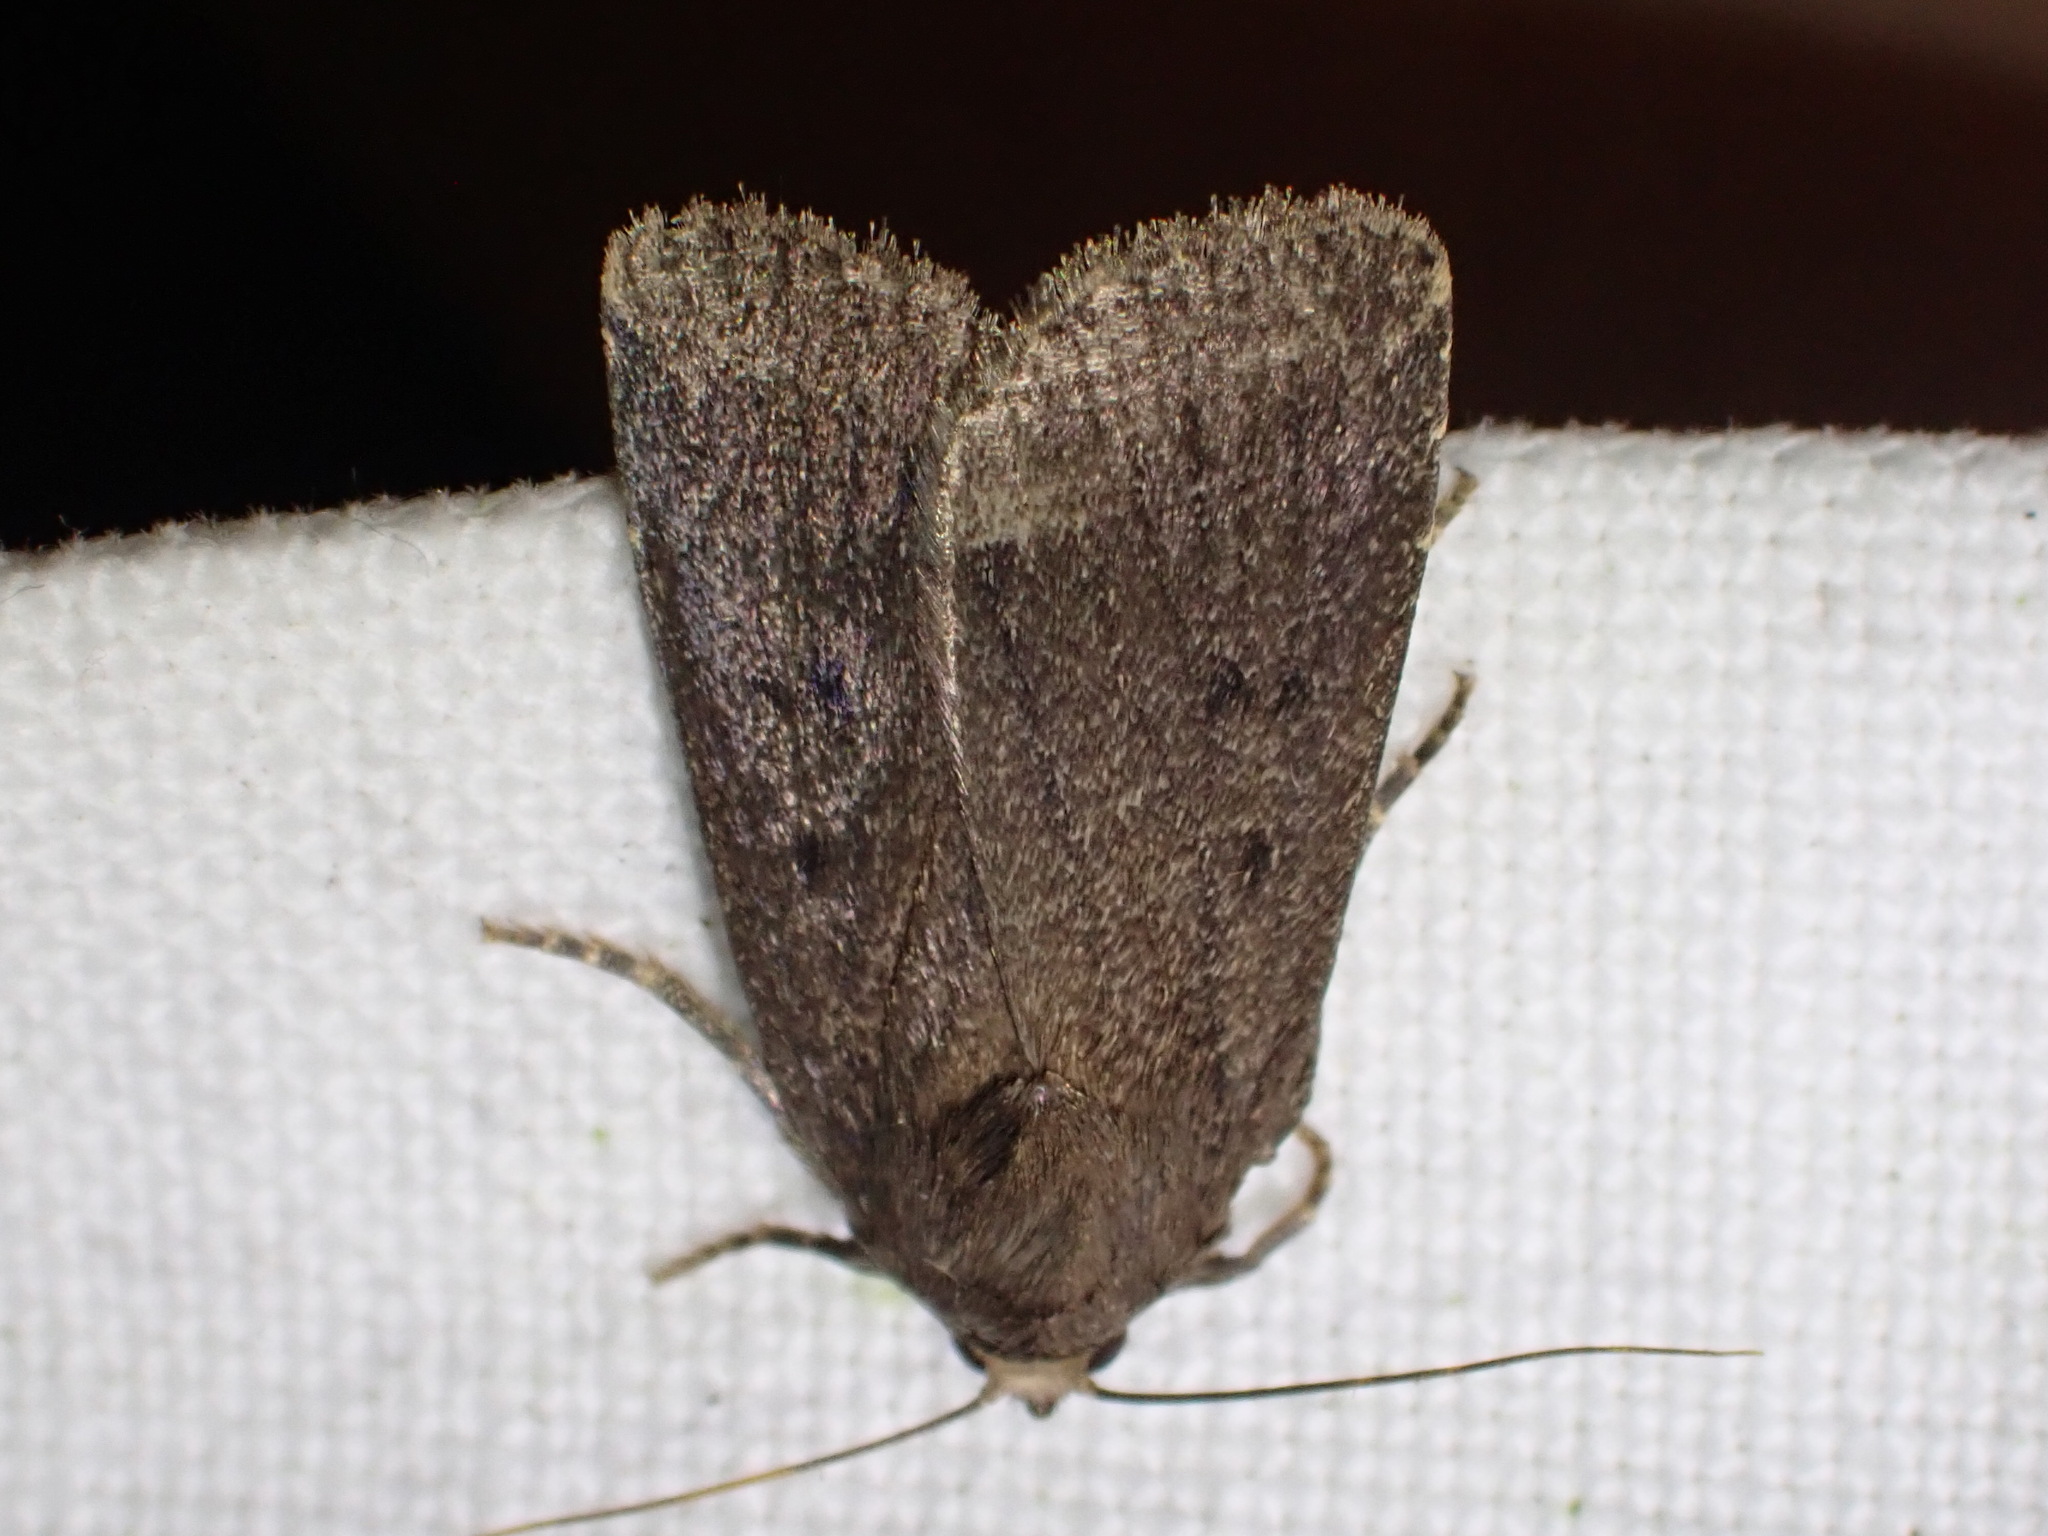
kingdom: Animalia
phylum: Arthropoda
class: Insecta
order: Lepidoptera
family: Noctuidae
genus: Amphipyra
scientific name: Amphipyra tragopoginis
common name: Mouse moth
